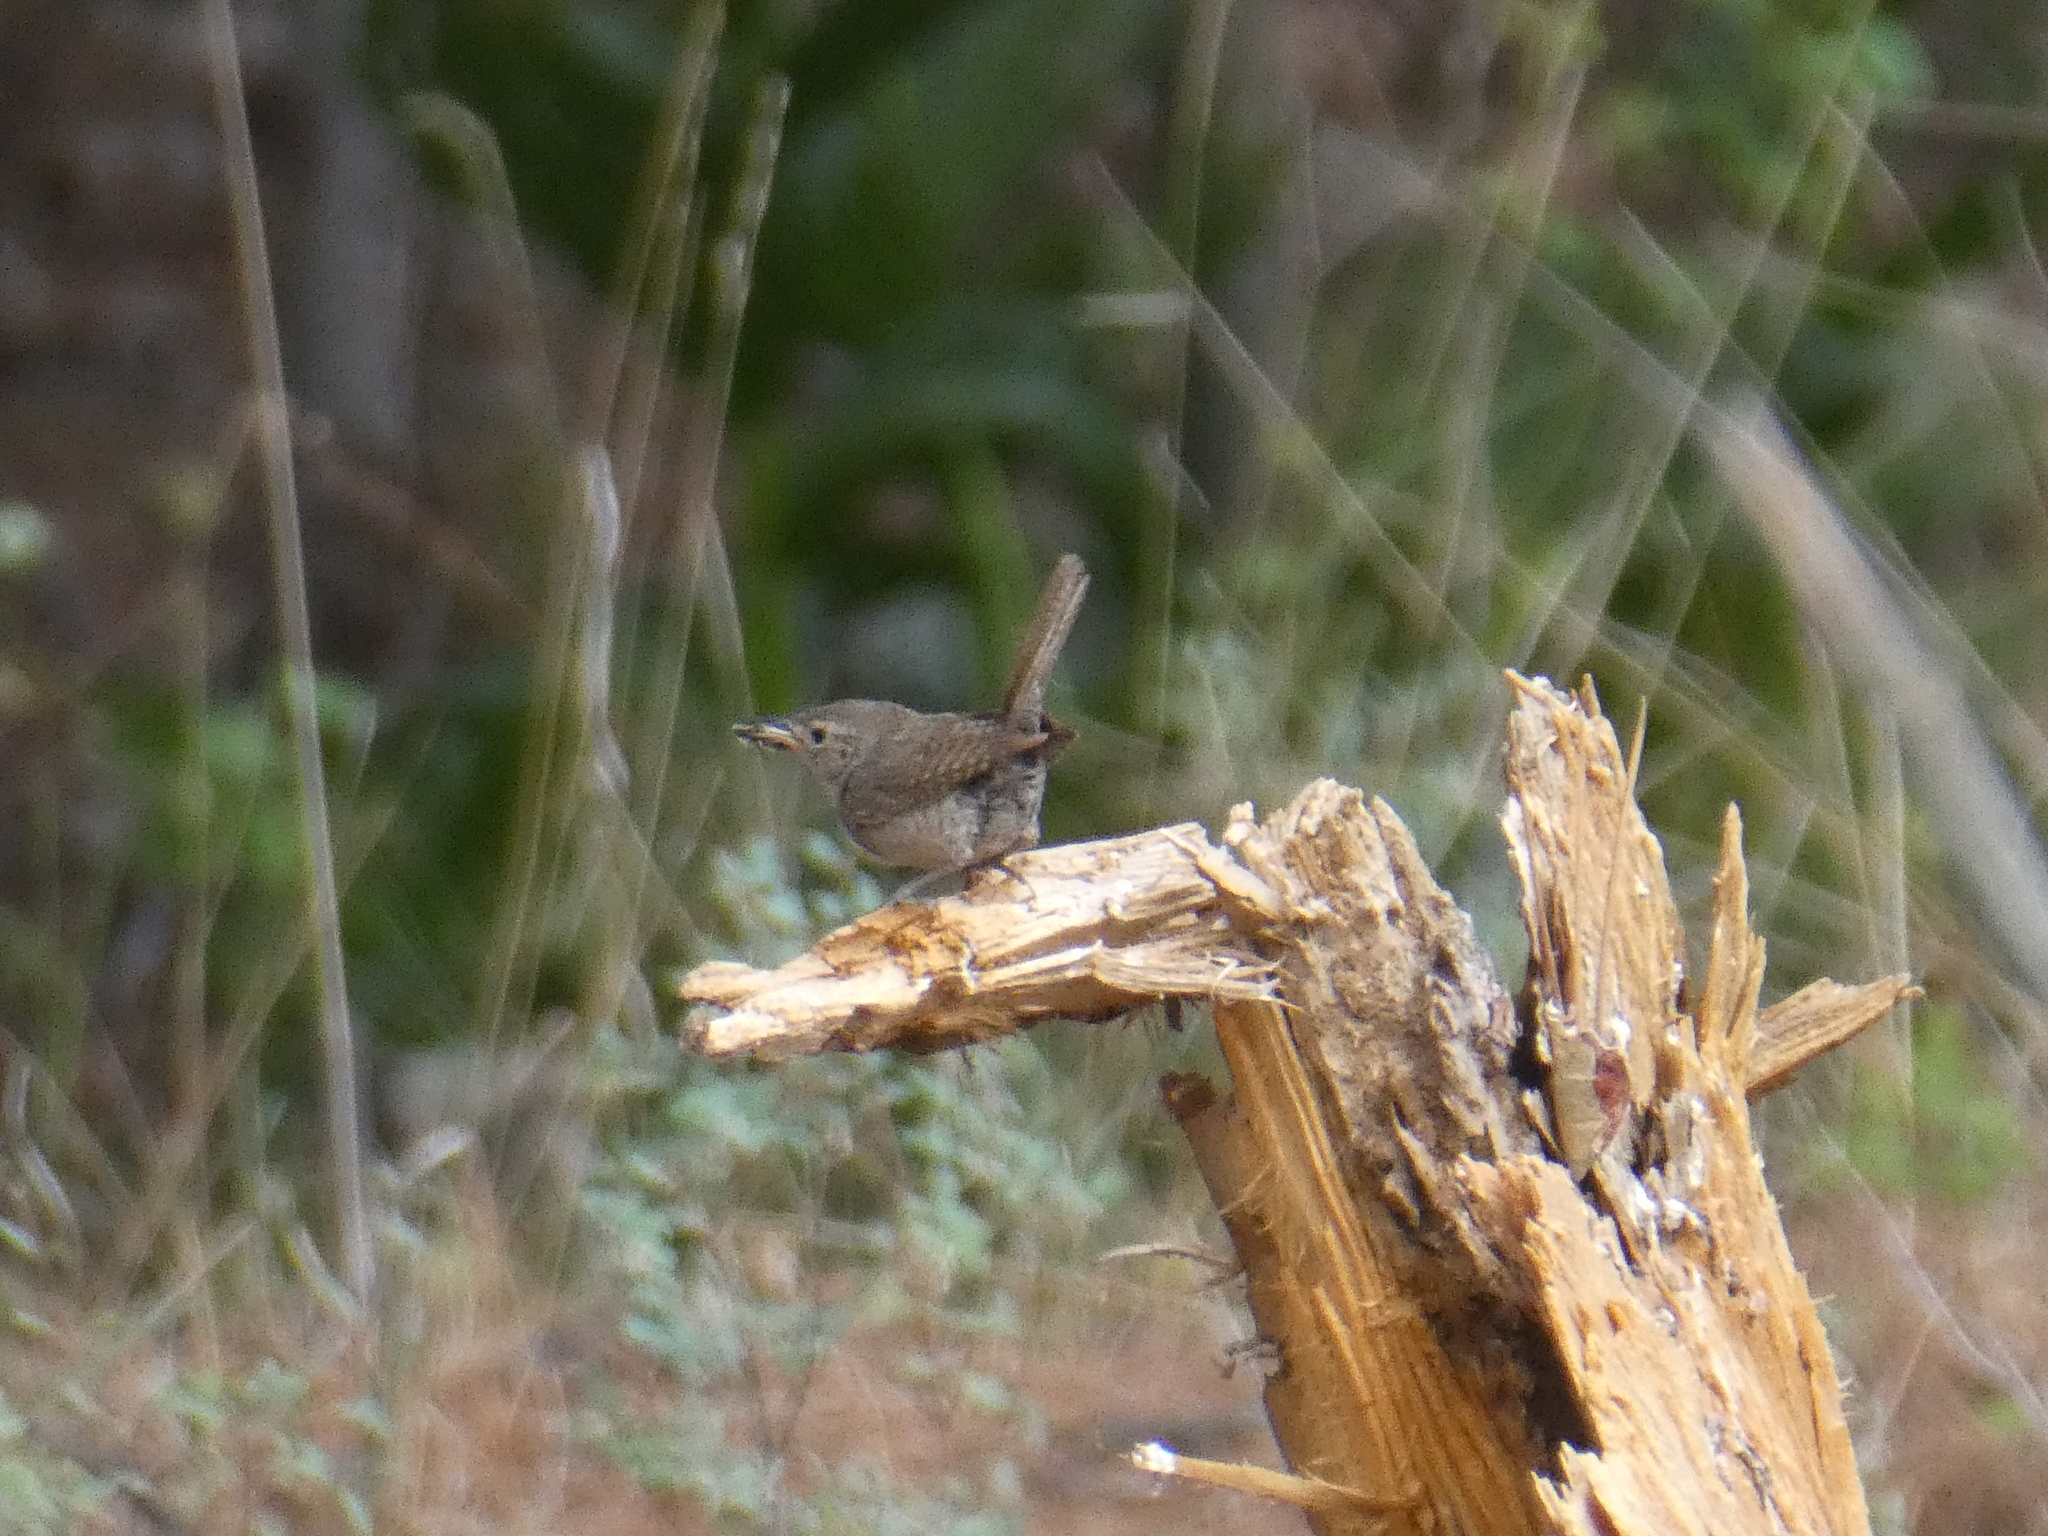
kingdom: Animalia
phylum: Chordata
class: Aves
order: Passeriformes
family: Troglodytidae
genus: Troglodytes
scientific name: Troglodytes aedon
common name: House wren
